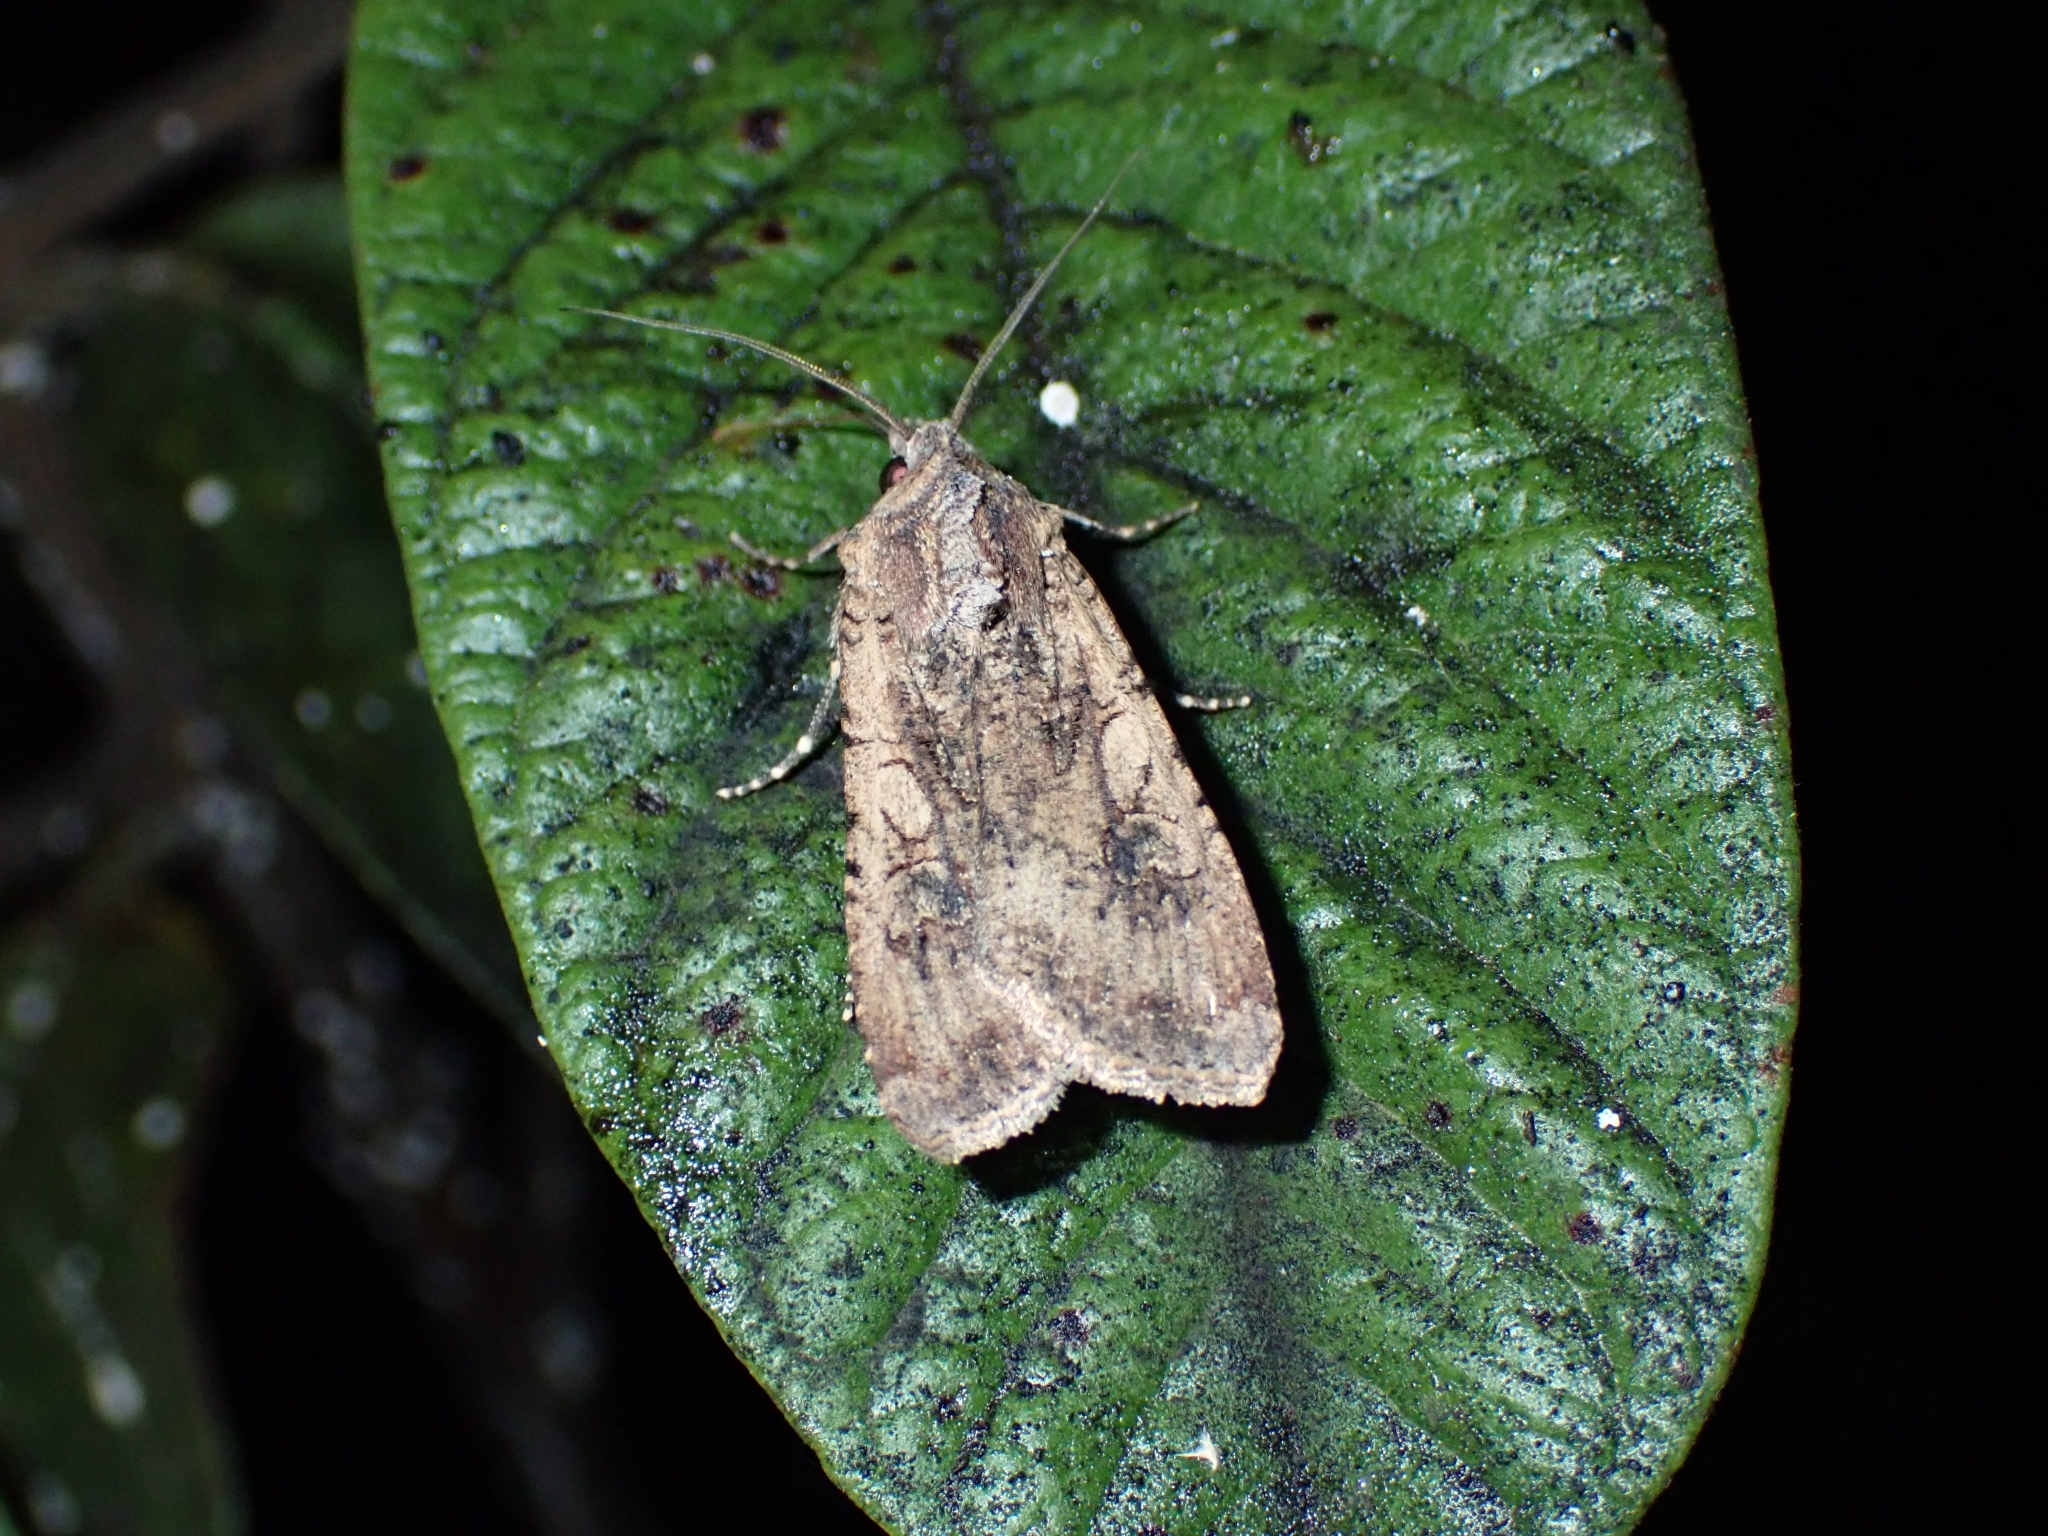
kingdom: Animalia
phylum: Arthropoda
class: Insecta
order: Lepidoptera
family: Noctuidae
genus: Peridroma
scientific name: Peridroma saucia
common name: Pearly underwing
